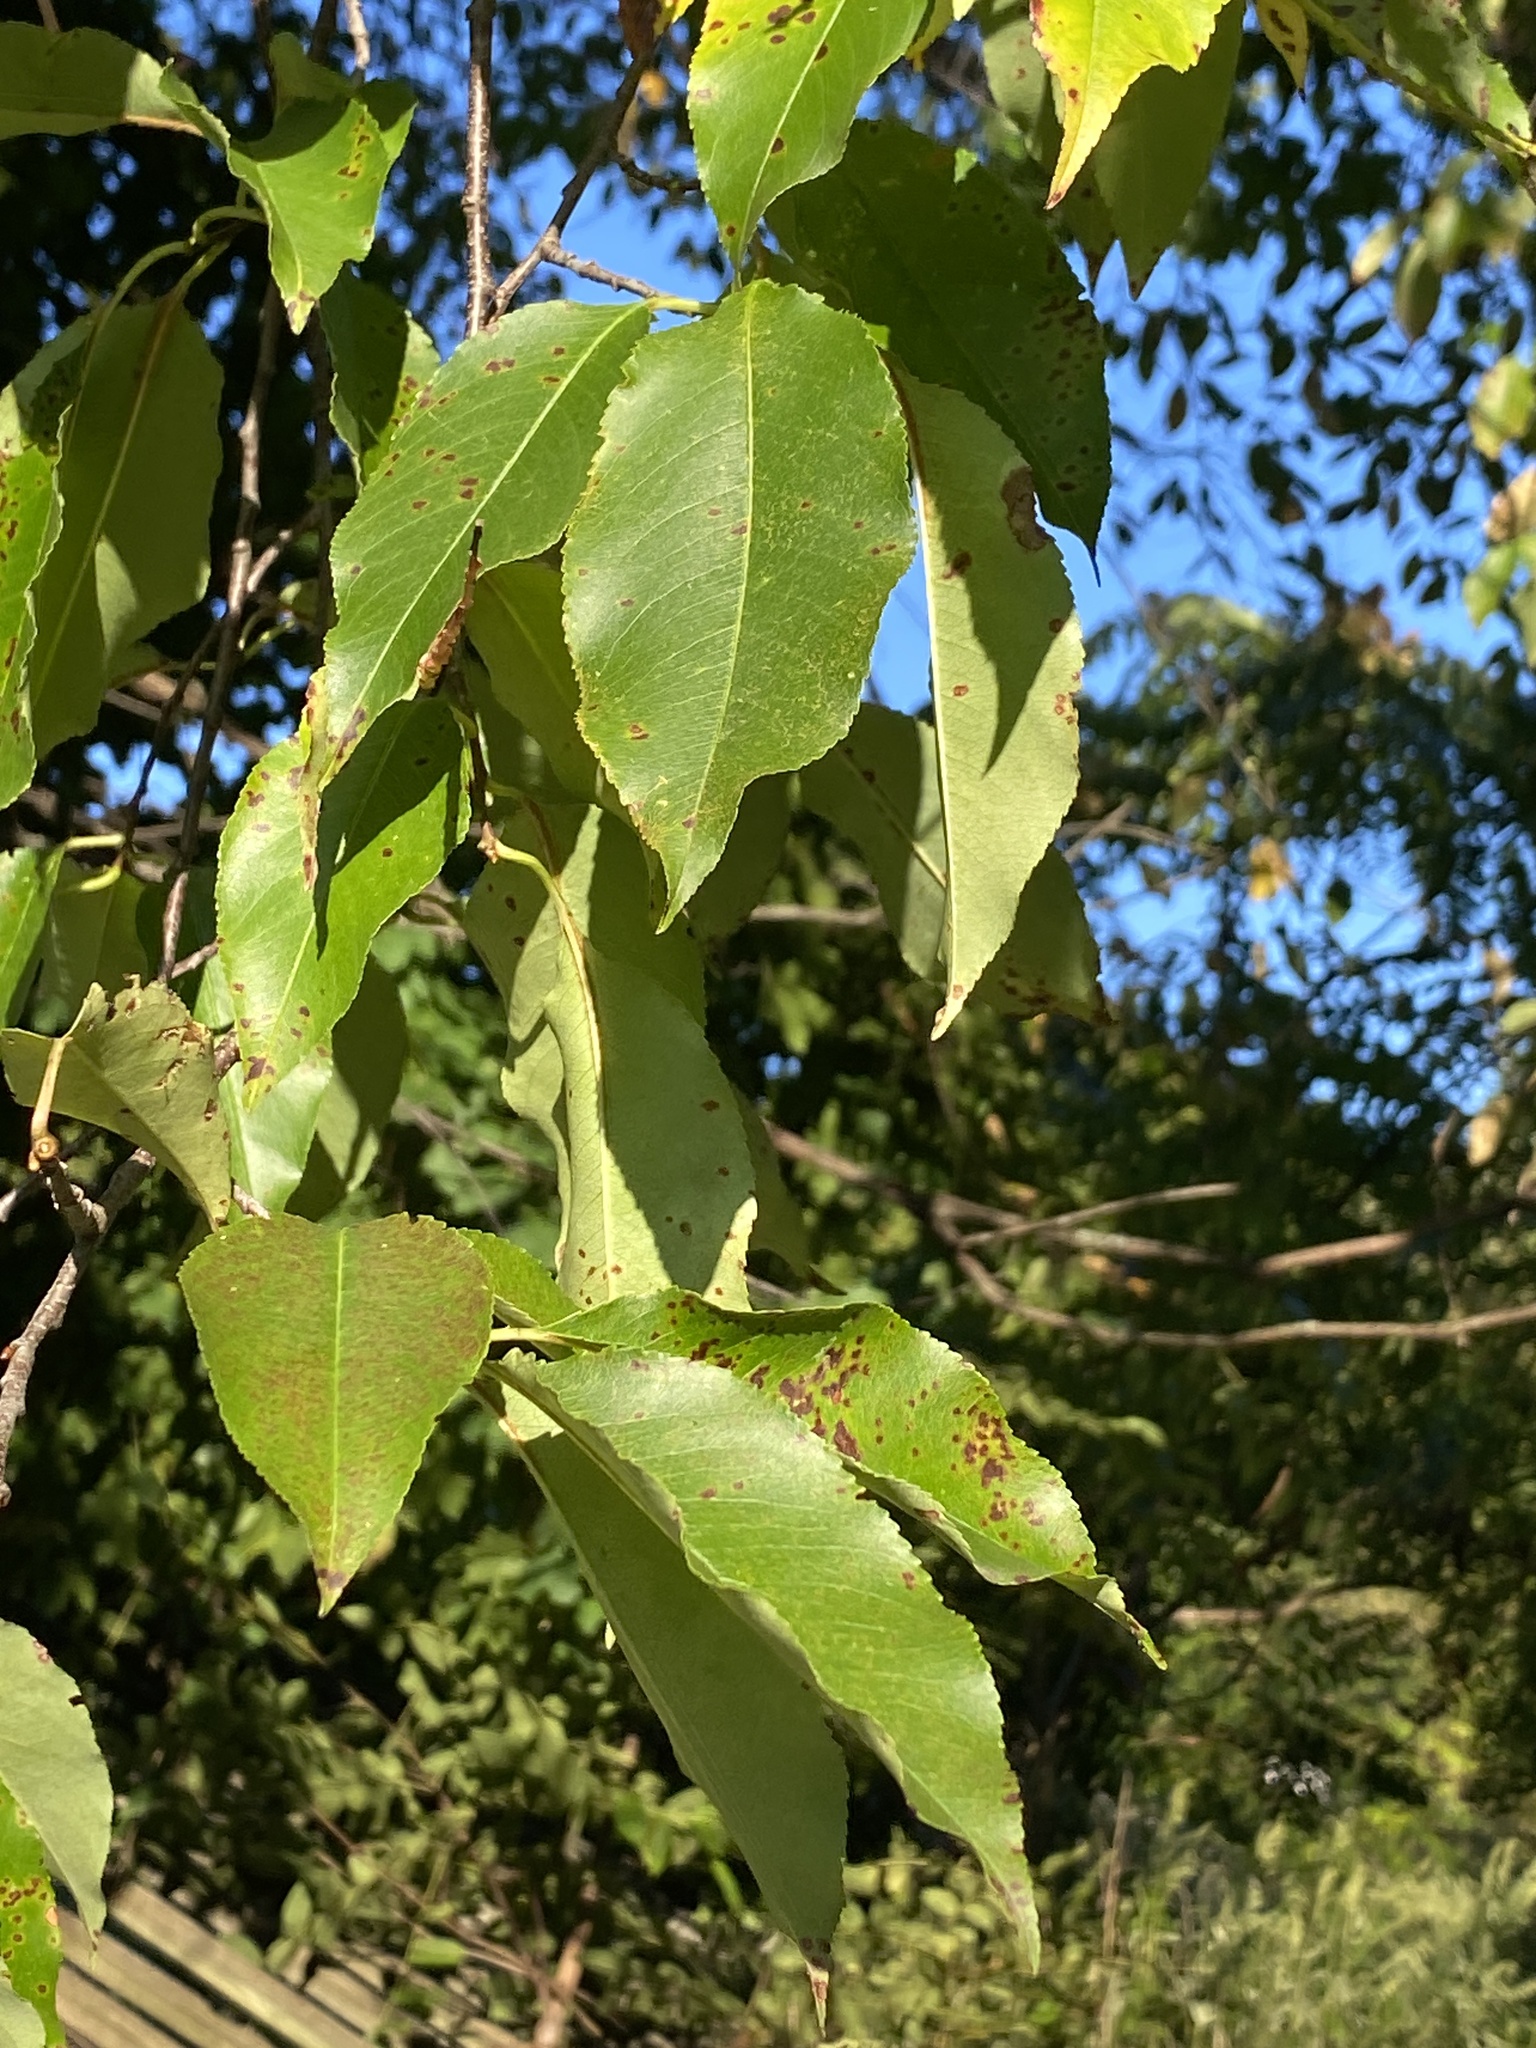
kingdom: Plantae
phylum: Tracheophyta
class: Magnoliopsida
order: Rosales
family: Rosaceae
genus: Prunus
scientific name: Prunus serotina
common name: Black cherry
